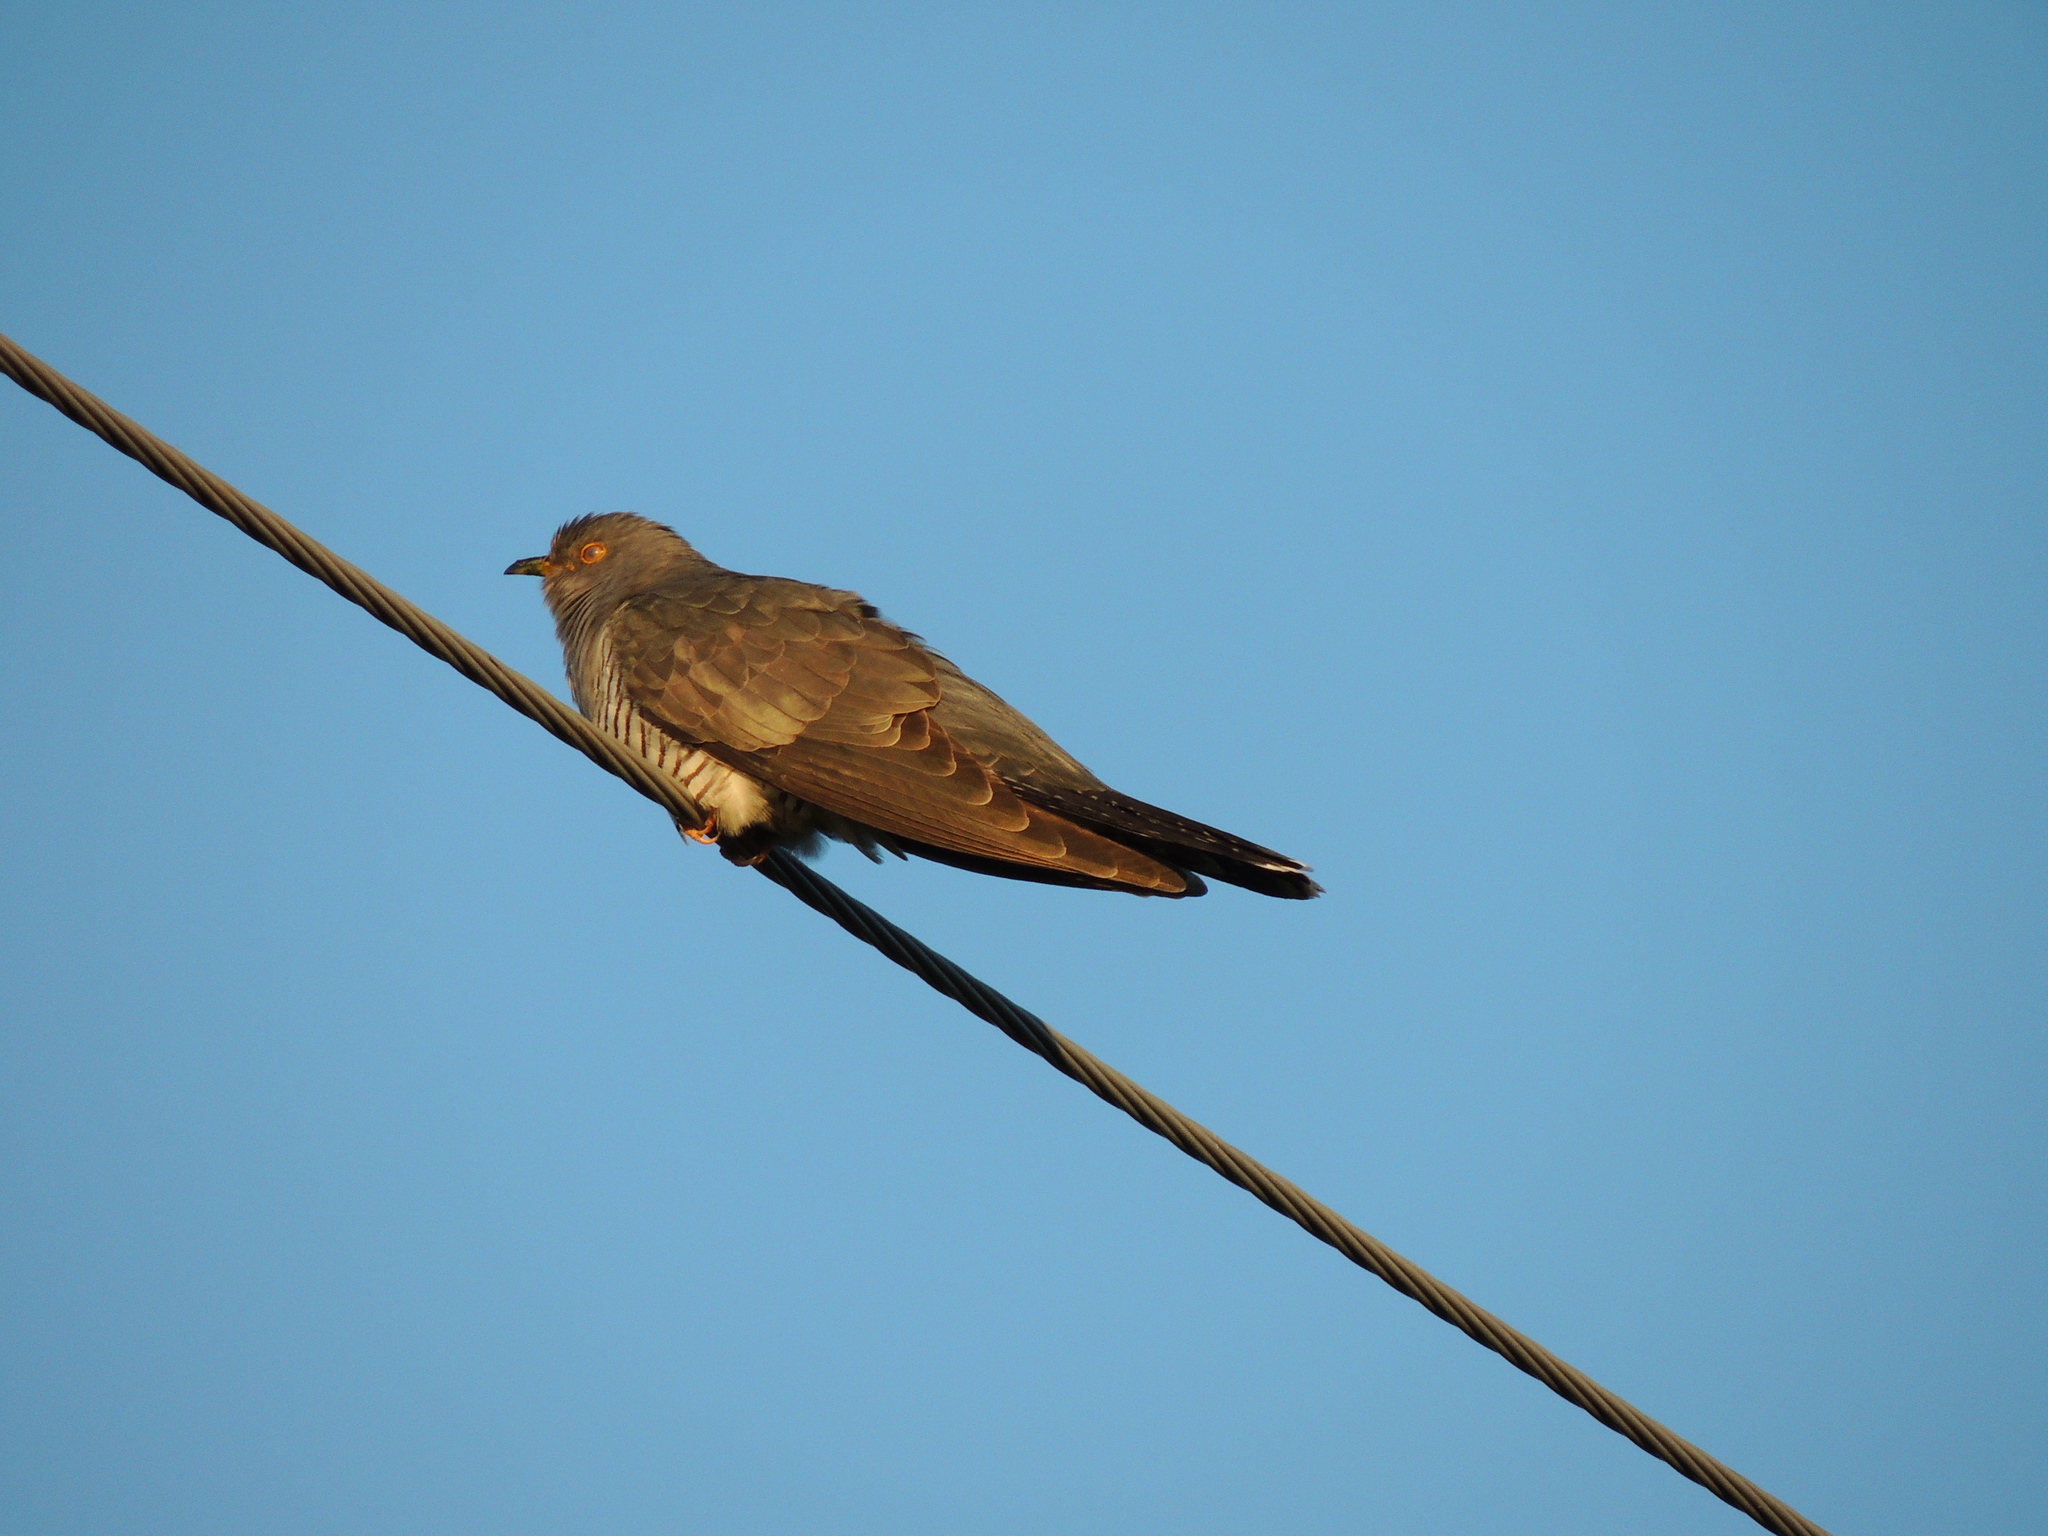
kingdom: Animalia
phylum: Chordata
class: Aves
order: Cuculiformes
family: Cuculidae
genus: Cuculus
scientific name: Cuculus canorus
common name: Common cuckoo
